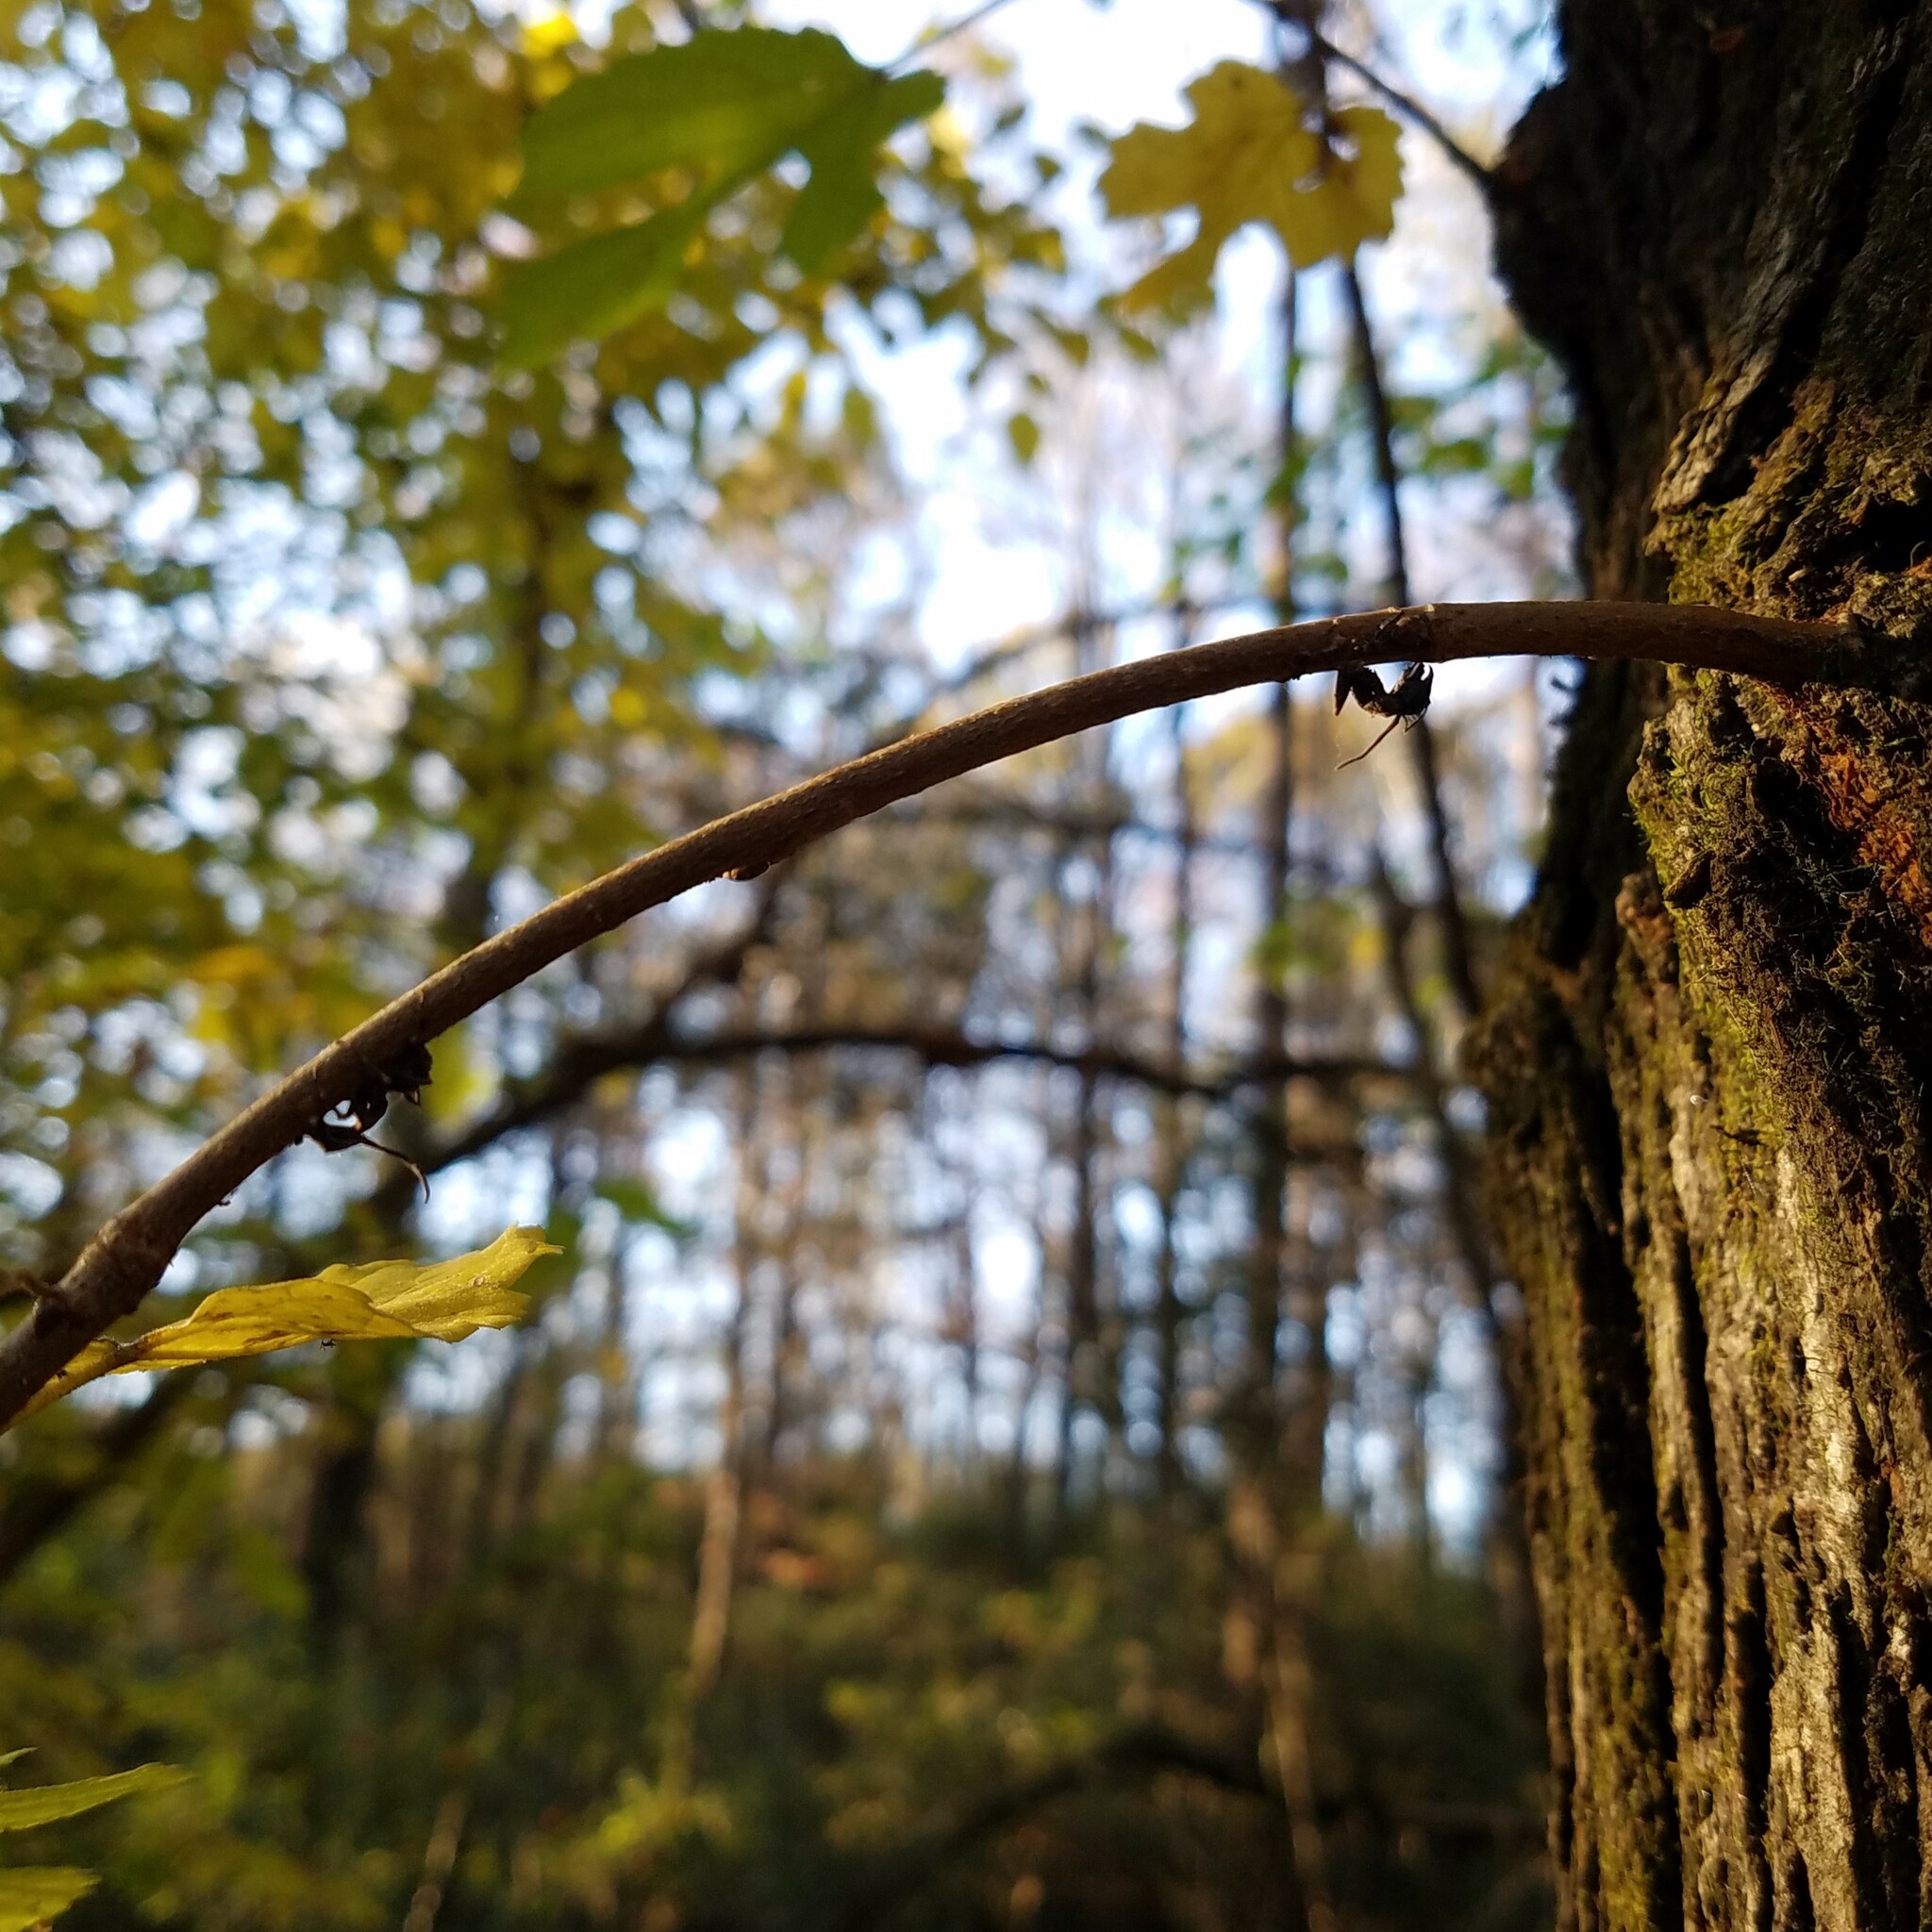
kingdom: Fungi
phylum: Ascomycota
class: Sordariomycetes
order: Hypocreales
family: Ophiocordycipitaceae
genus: Ophiocordyceps
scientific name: Ophiocordyceps kimflemingiae
